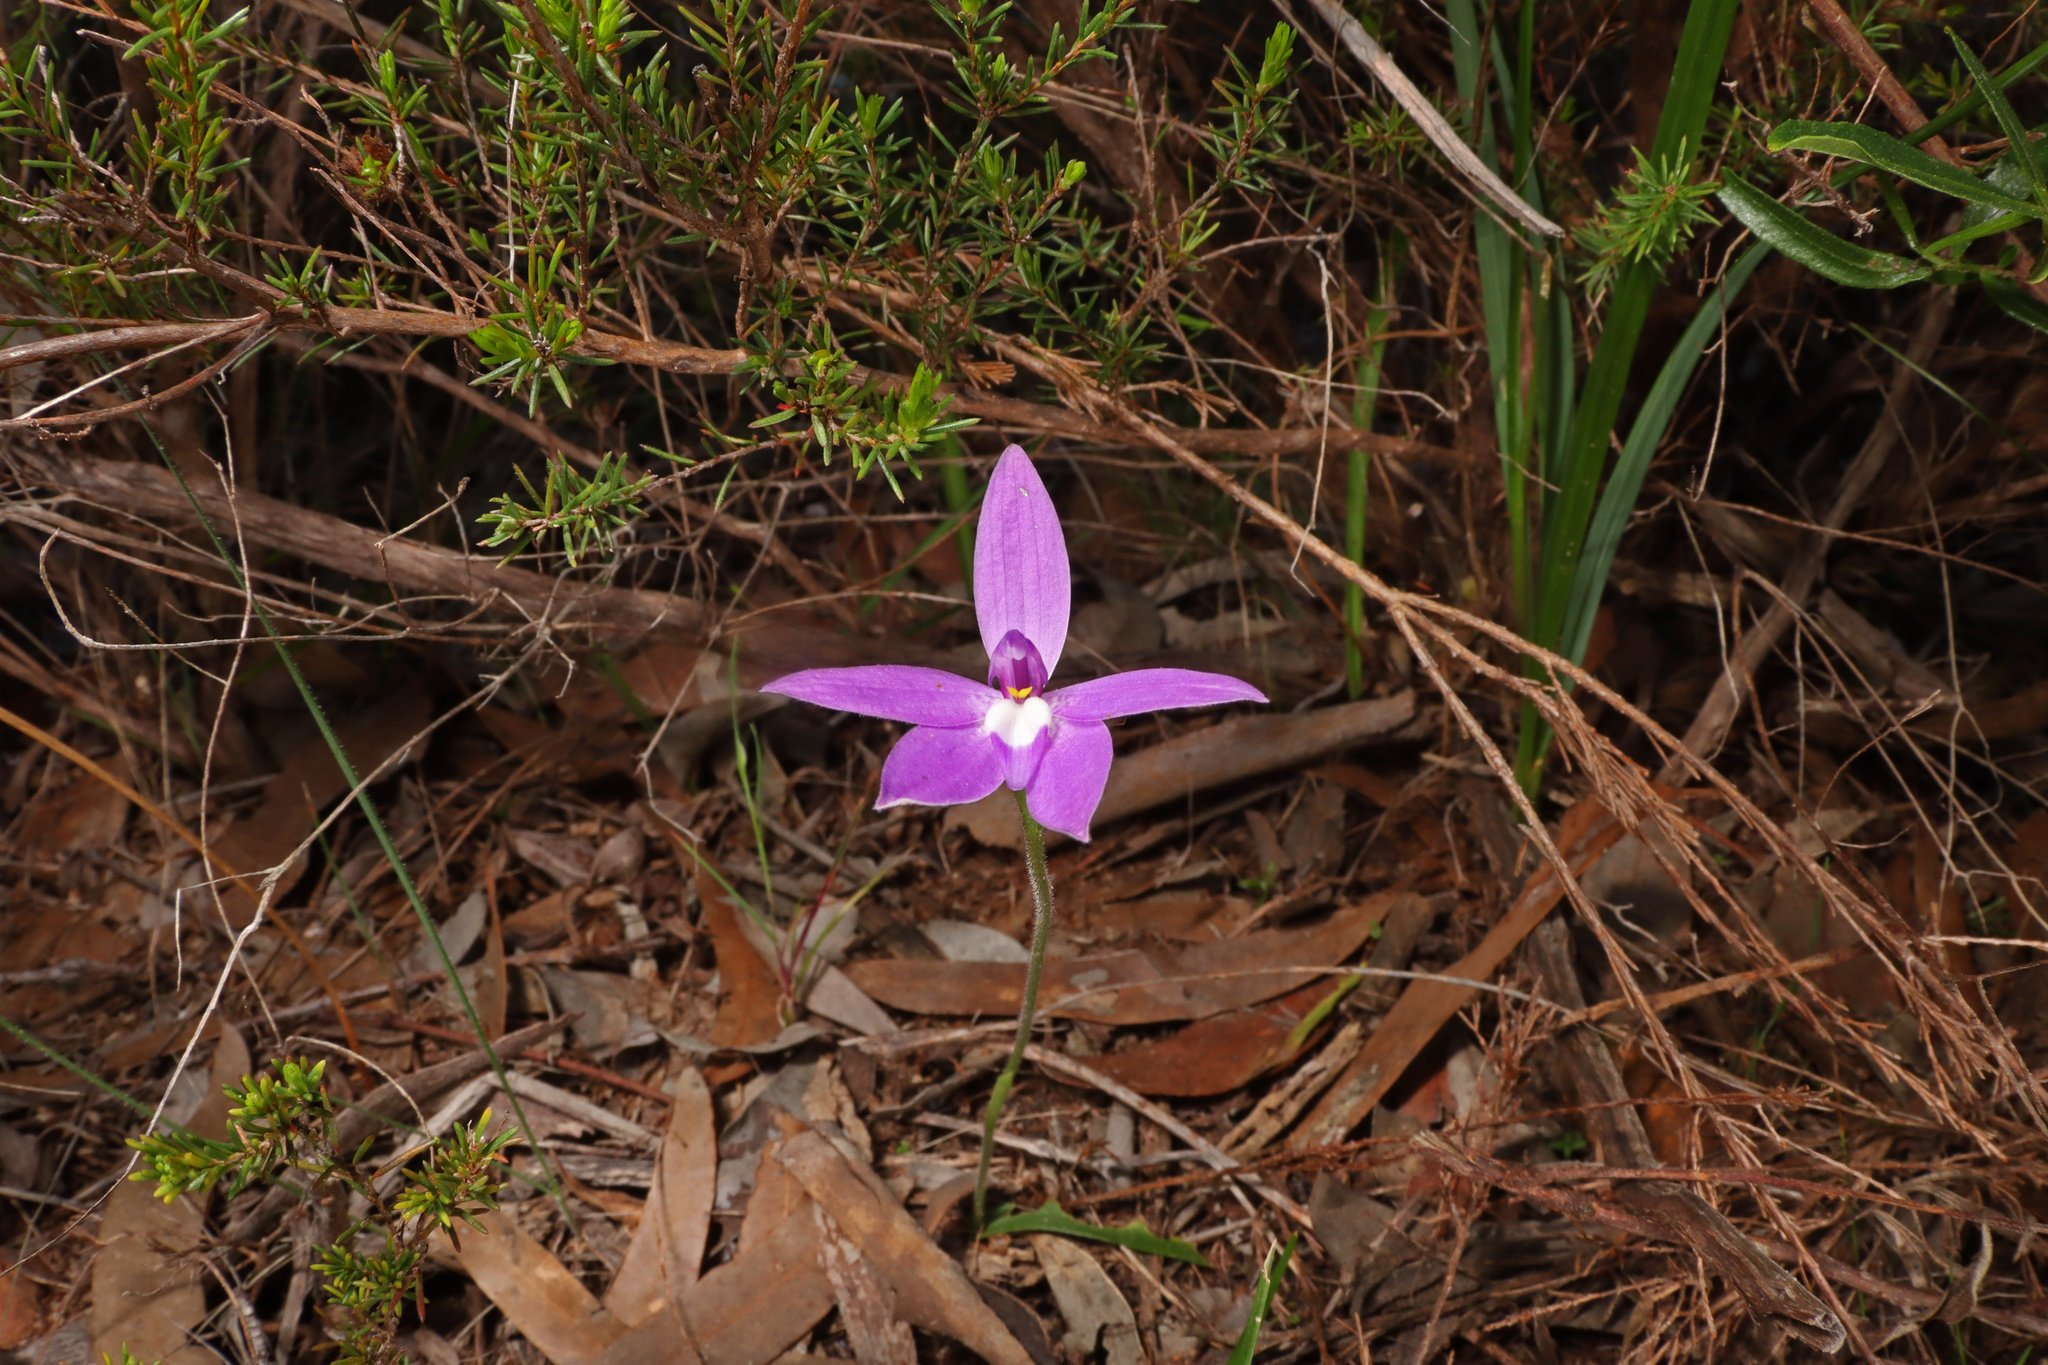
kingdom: Plantae
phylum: Tracheophyta
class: Liliopsida
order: Asparagales
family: Orchidaceae
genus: Caladenia
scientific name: Caladenia major
